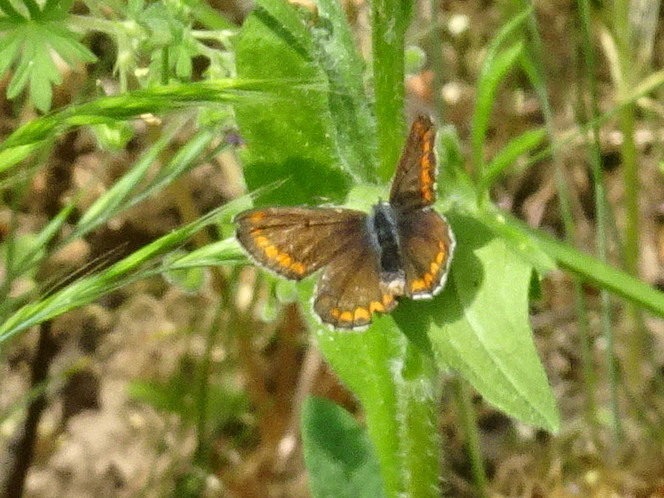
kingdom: Animalia
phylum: Arthropoda
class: Insecta
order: Lepidoptera
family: Lycaenidae
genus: Aricia
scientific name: Aricia agestis
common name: Brown argus
